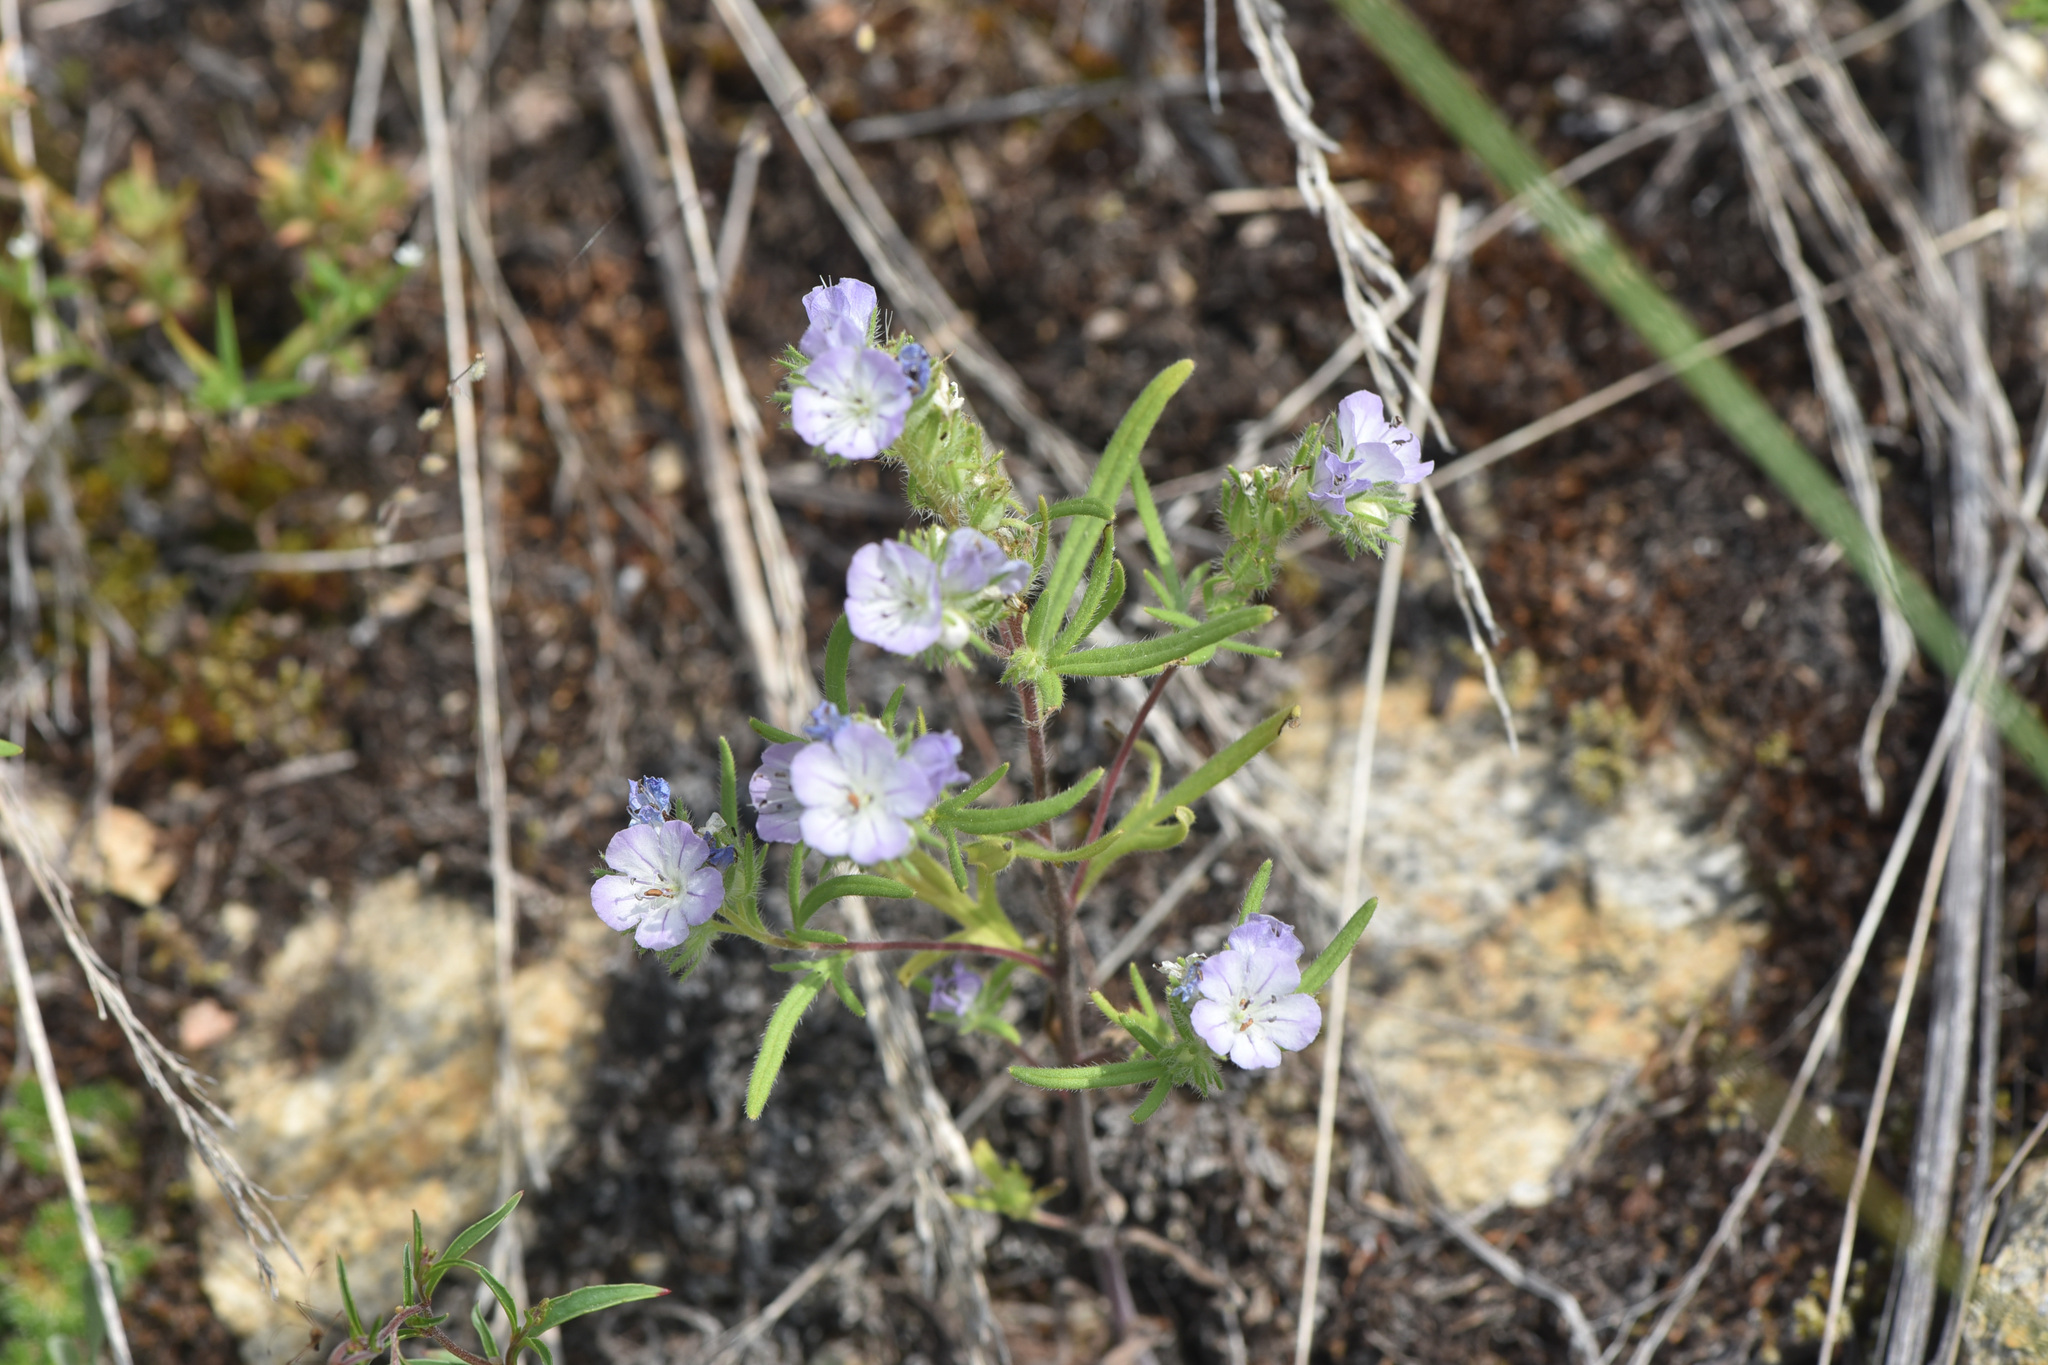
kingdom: Plantae
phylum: Tracheophyta
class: Magnoliopsida
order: Boraginales
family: Hydrophyllaceae
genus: Phacelia
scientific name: Phacelia linearis
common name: Linear-leaved phacelia
